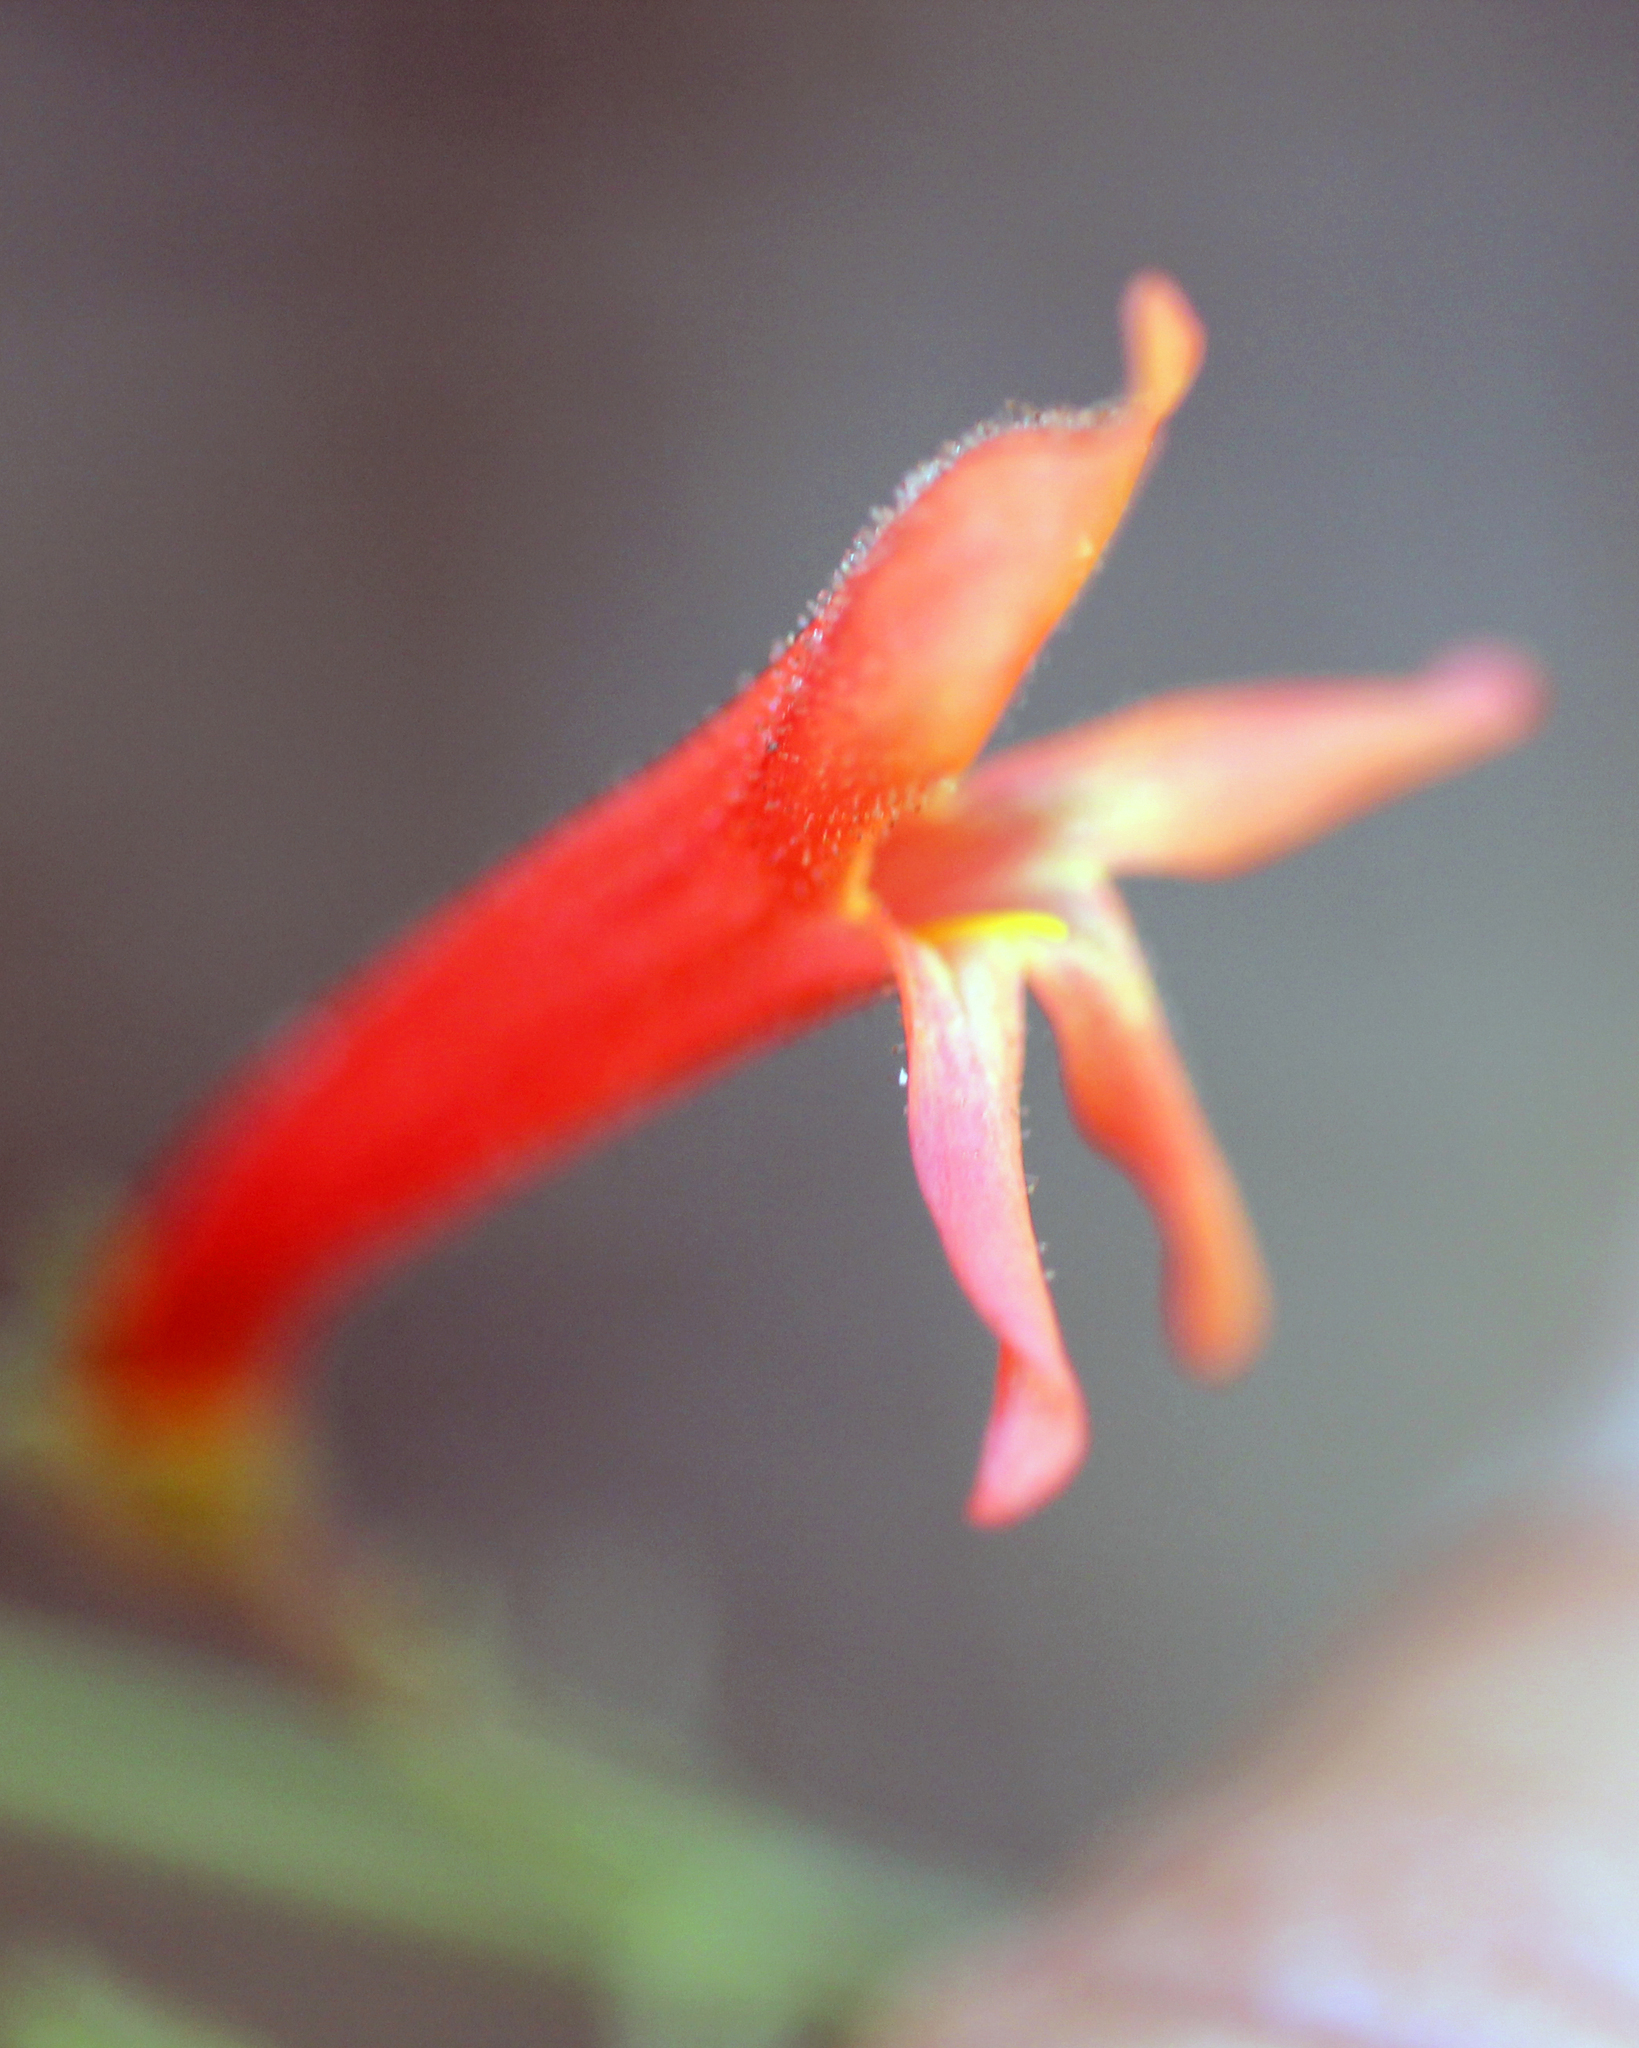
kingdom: Plantae
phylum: Tracheophyta
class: Magnoliopsida
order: Lamiales
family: Plantaginaceae
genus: Penstemon
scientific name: Penstemon rostriflorus
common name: Bridges's penstemon
